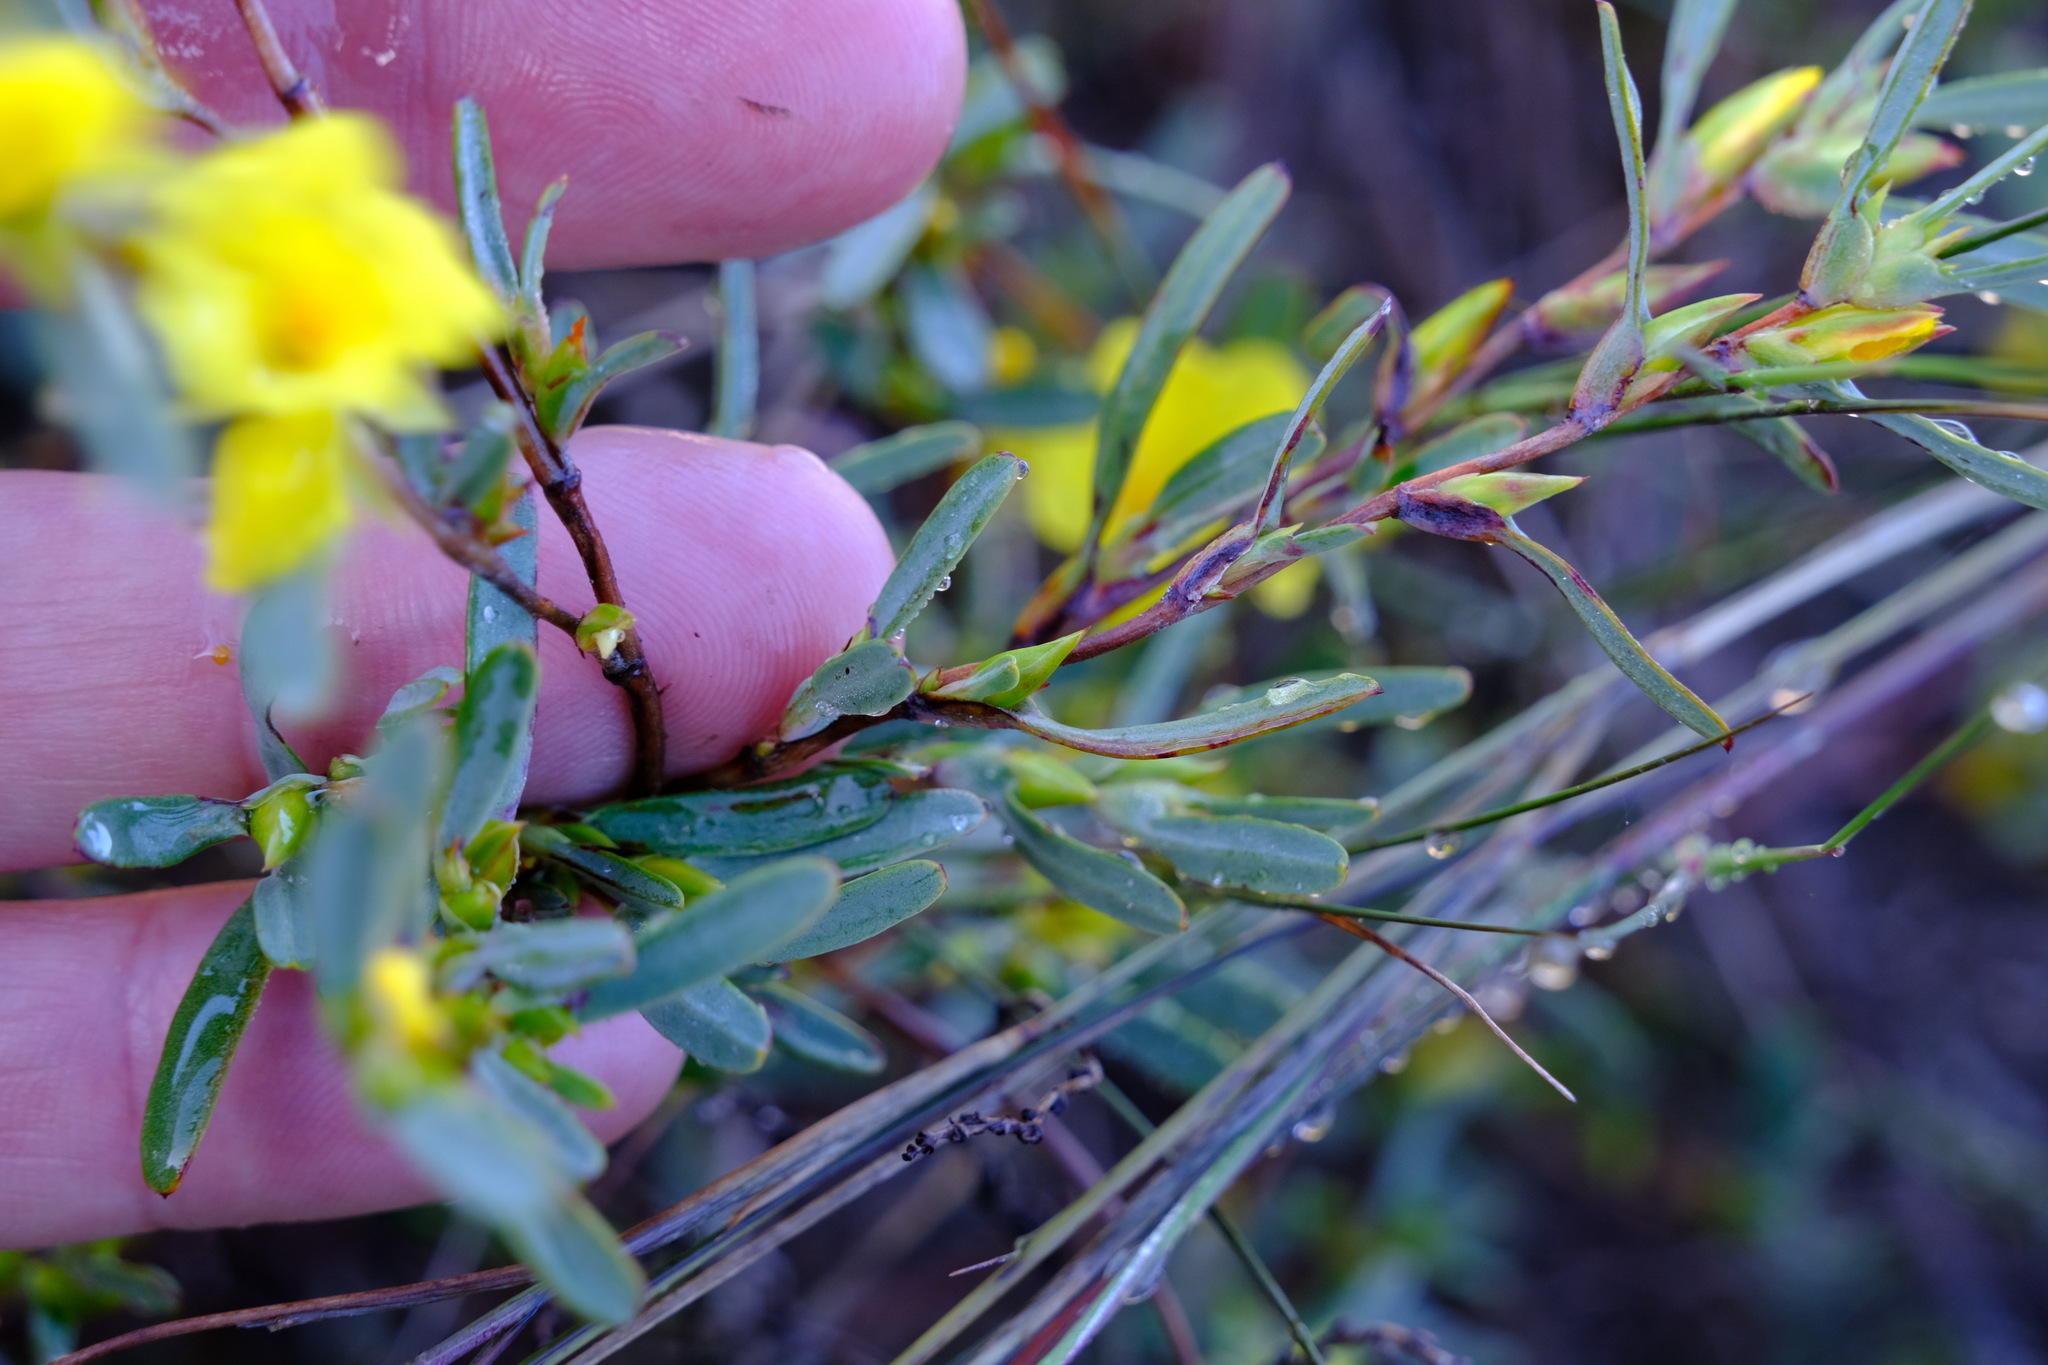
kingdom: Plantae
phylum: Tracheophyta
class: Magnoliopsida
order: Dilleniales
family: Dilleniaceae
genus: Hibbertia
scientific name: Hibbertia subvaginata
